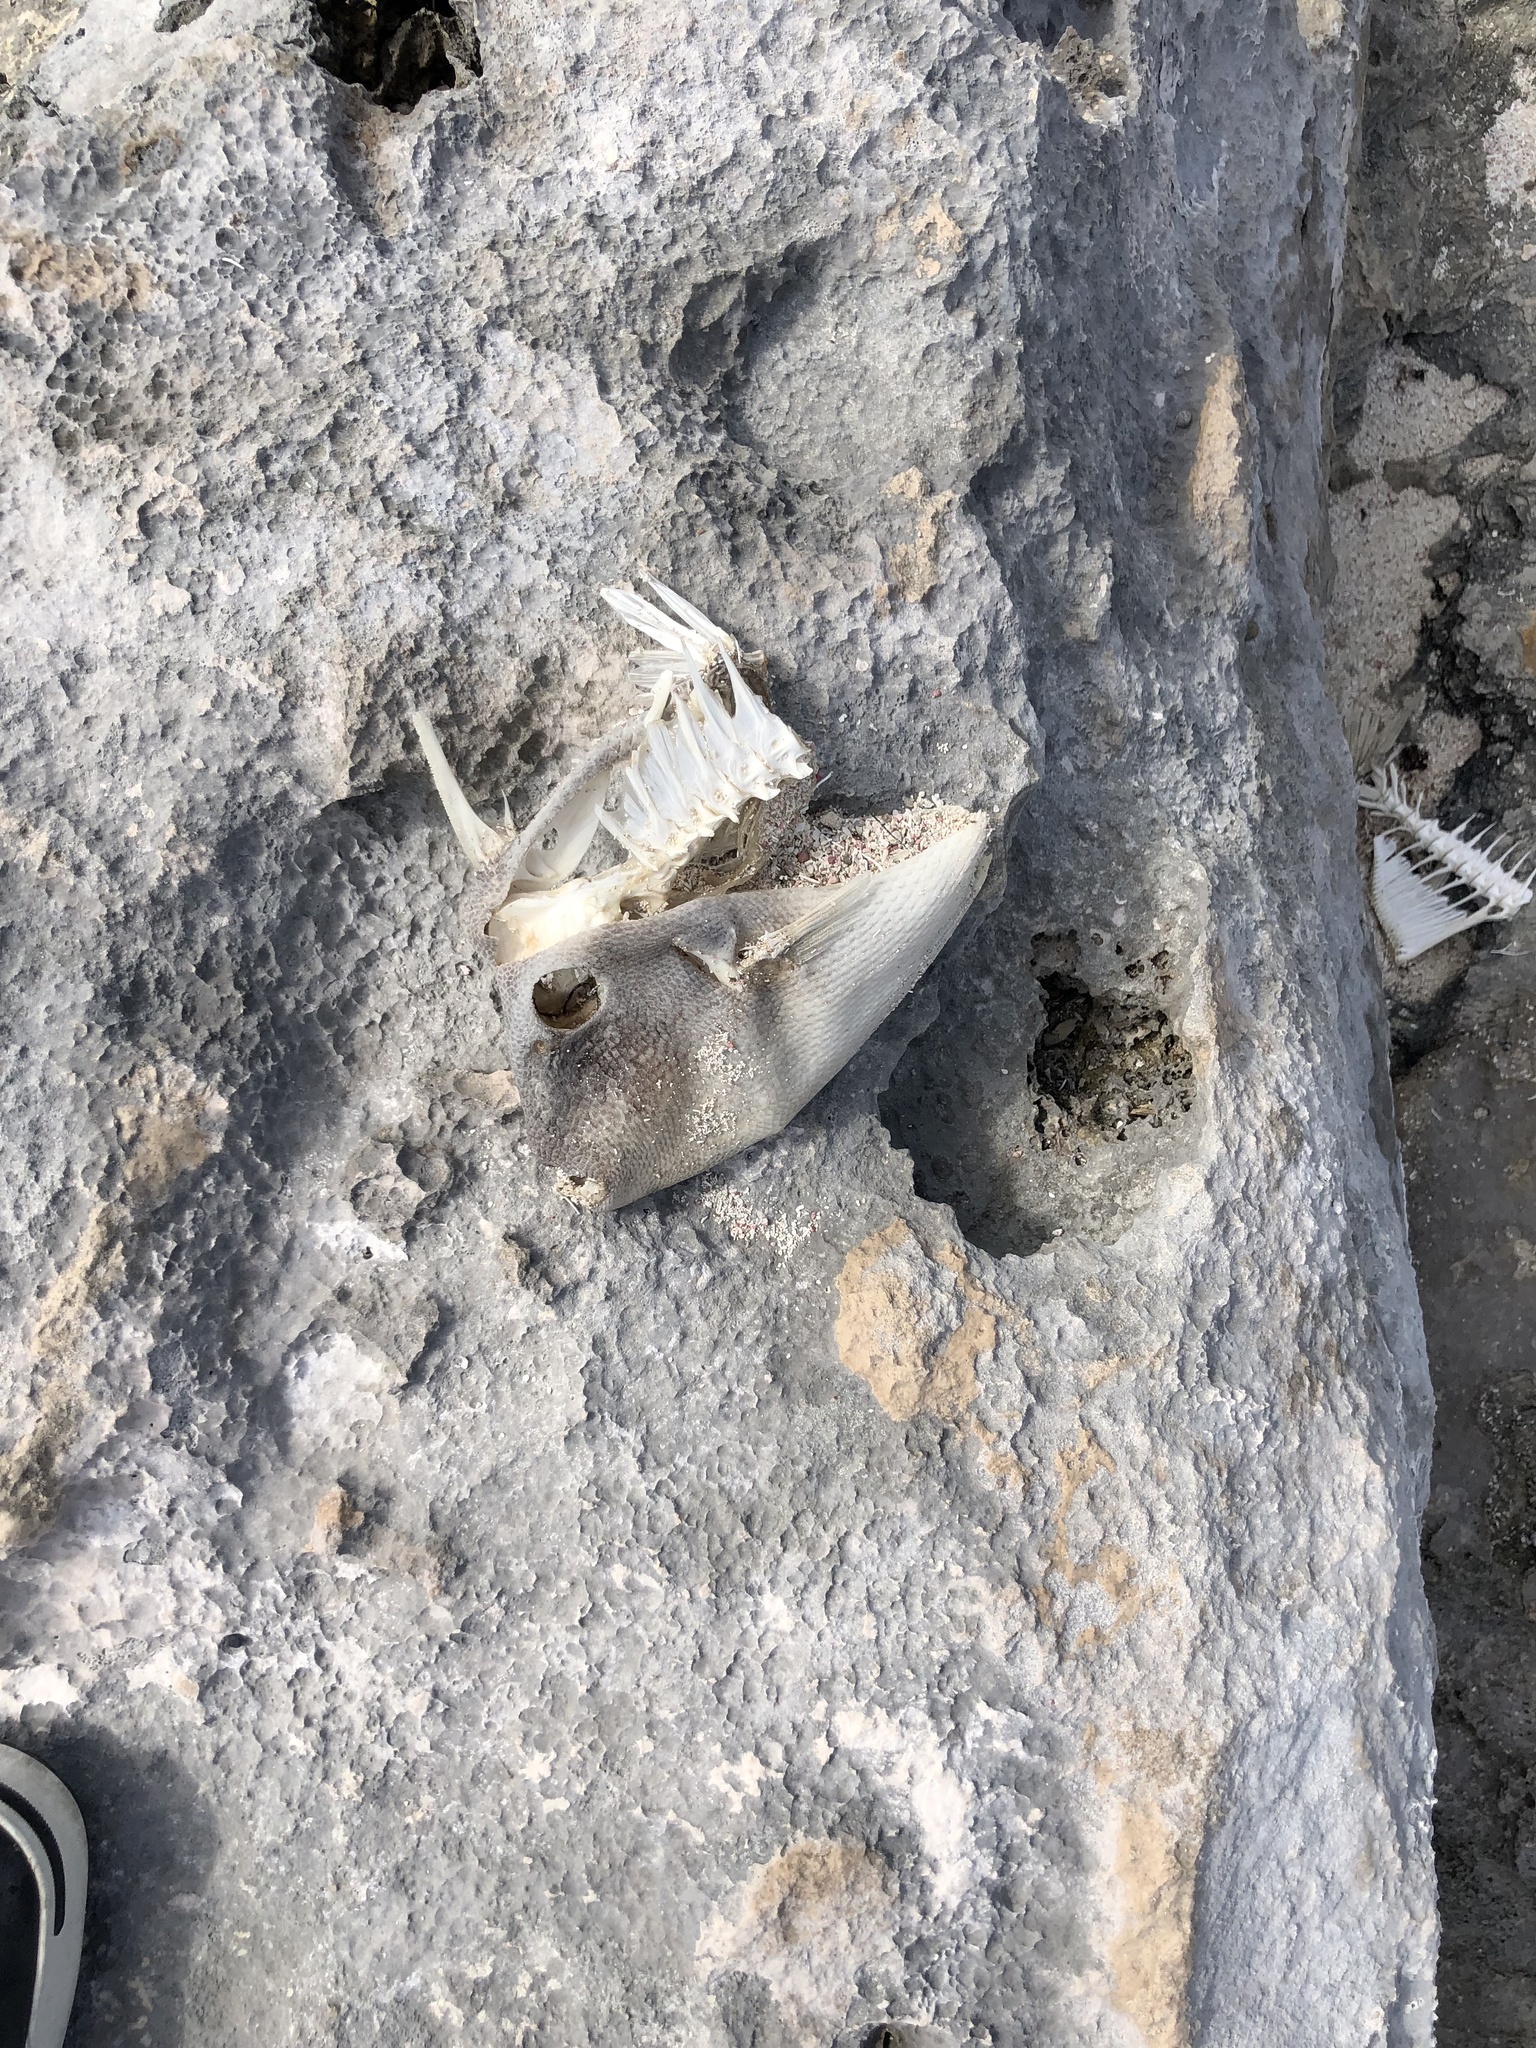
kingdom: Animalia
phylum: Chordata
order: Tetraodontiformes
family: Balistidae
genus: Balistes
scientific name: Balistes capriscus
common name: Grey triggerfish
